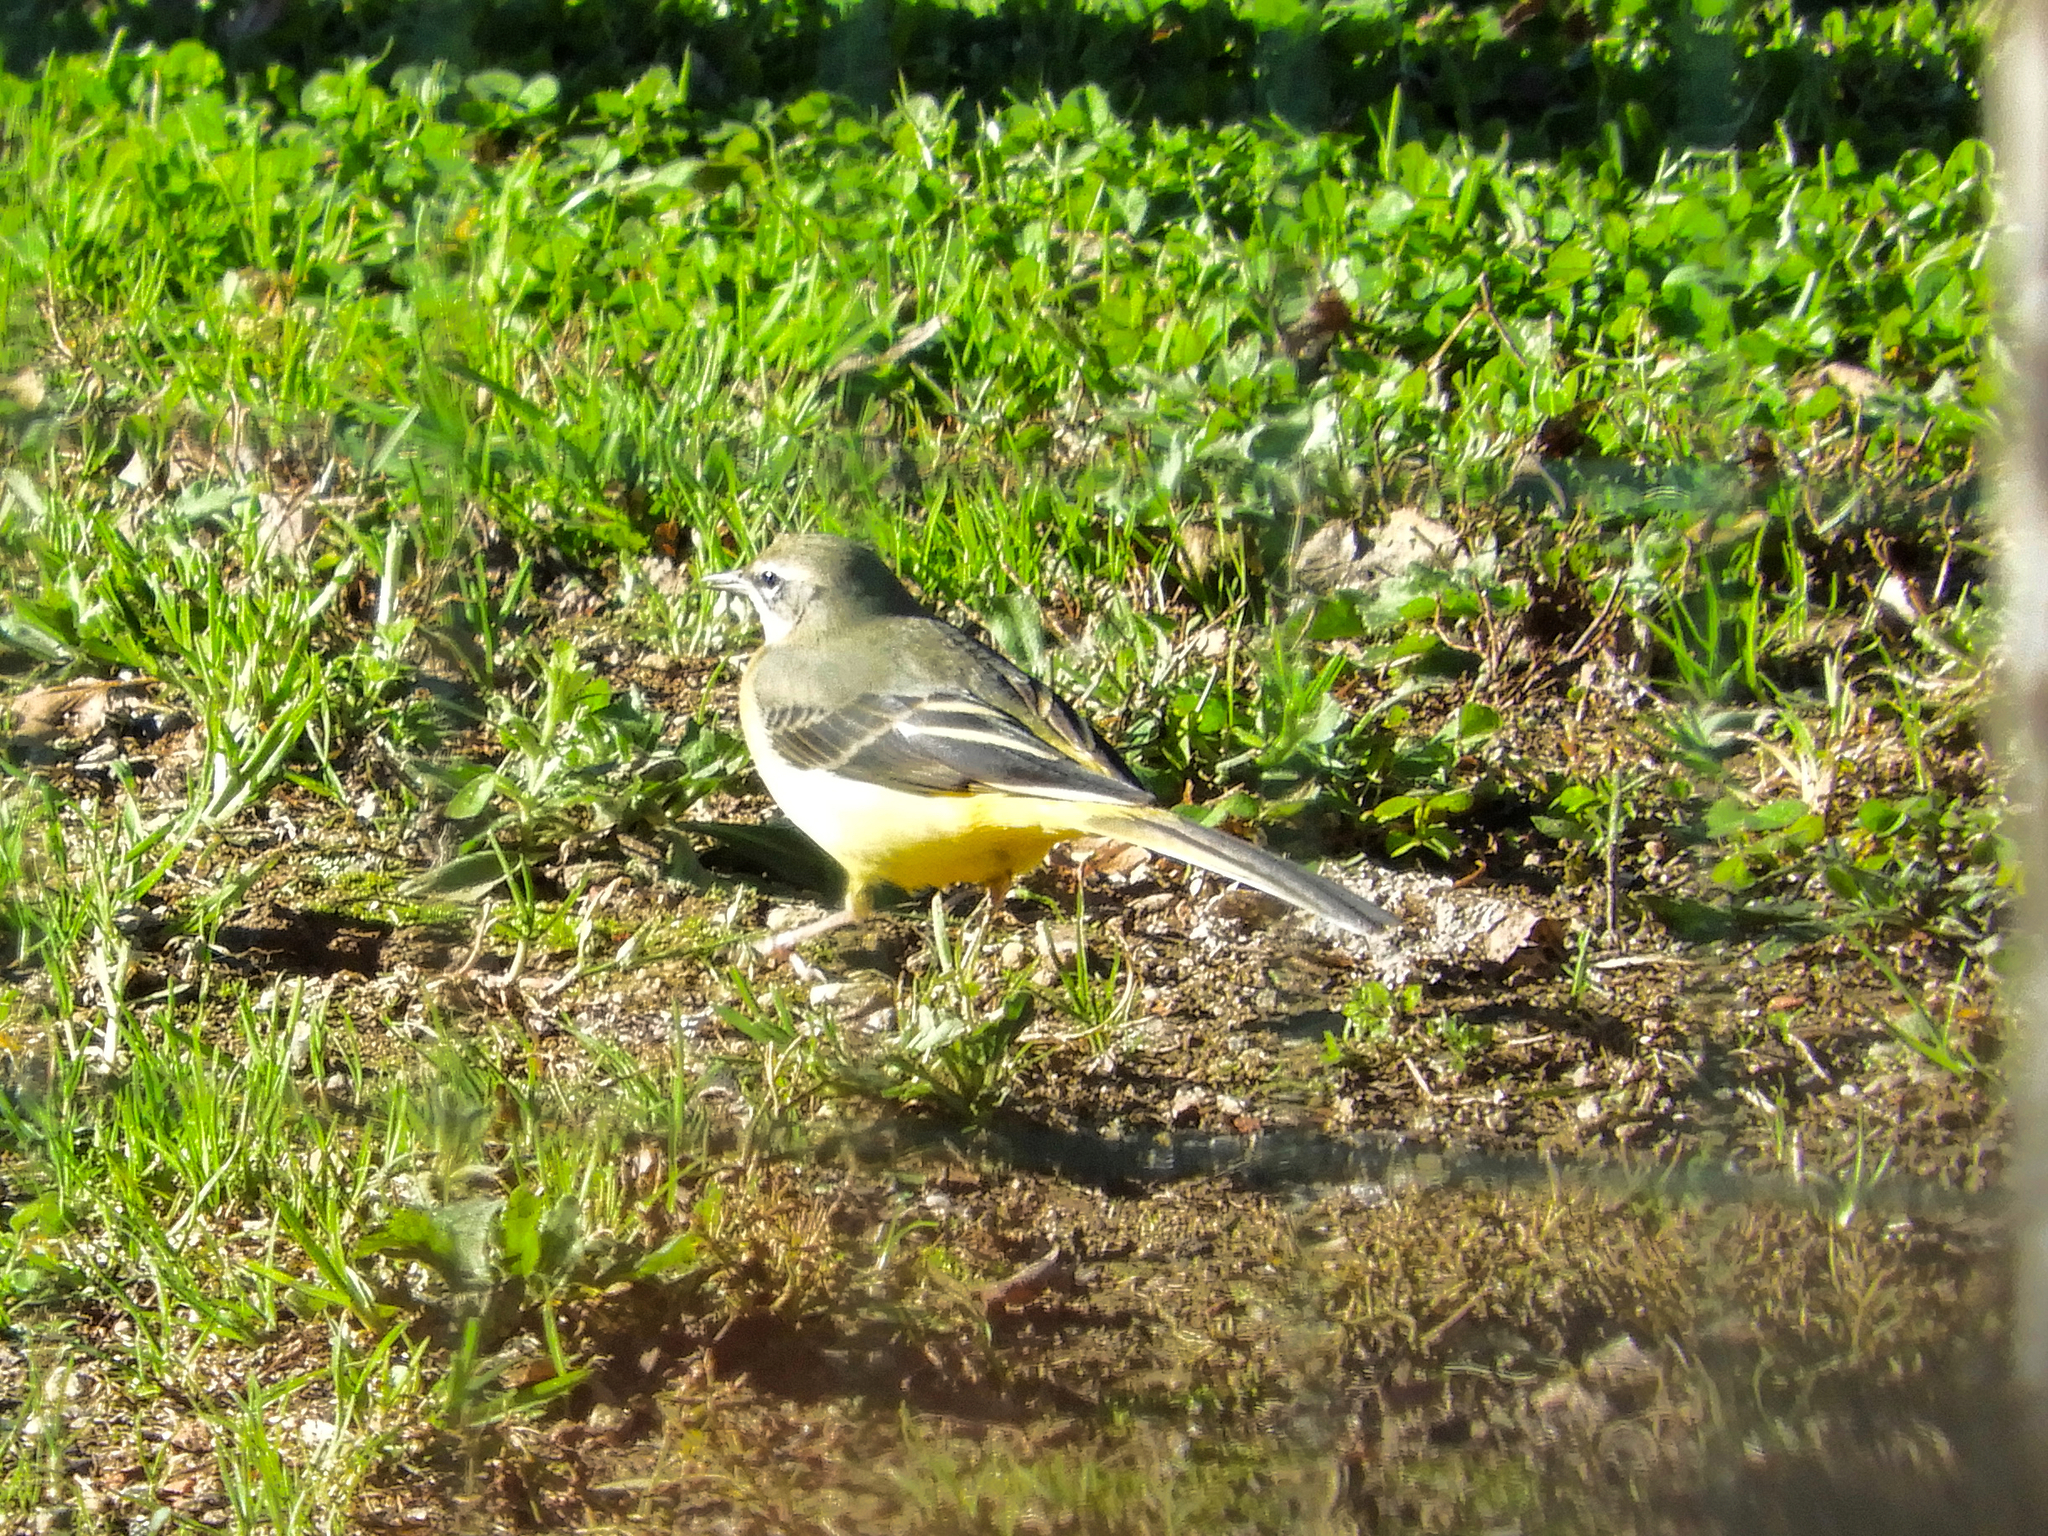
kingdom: Animalia
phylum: Chordata
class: Aves
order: Passeriformes
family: Motacillidae
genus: Motacilla
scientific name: Motacilla cinerea
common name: Grey wagtail
